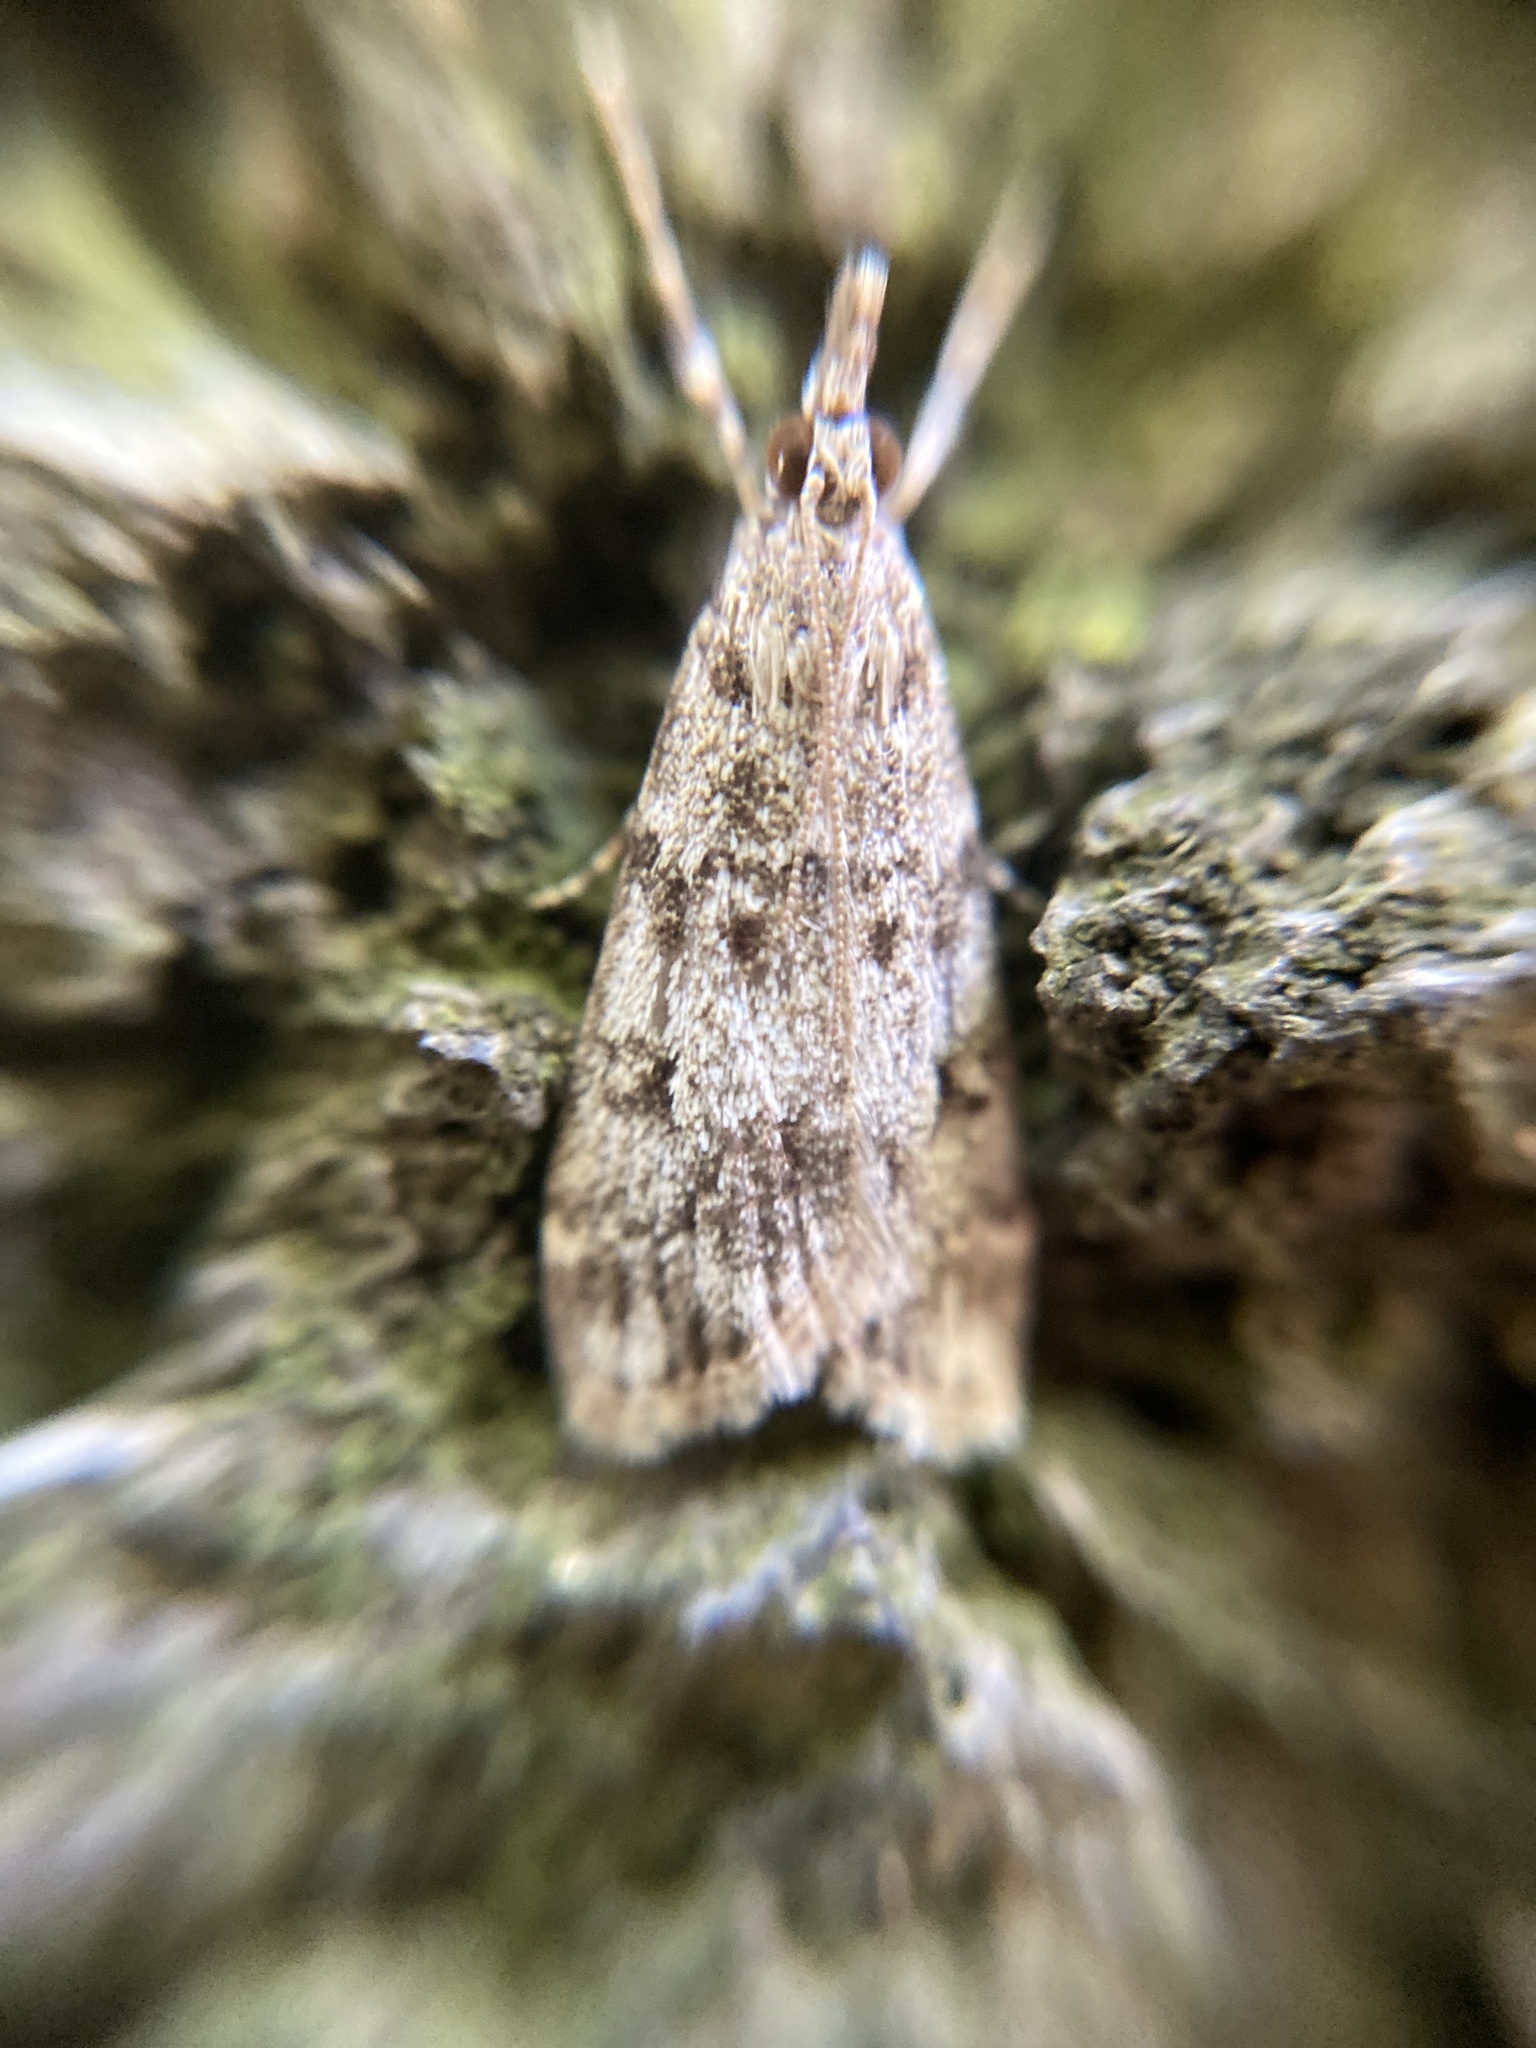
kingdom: Animalia
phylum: Arthropoda
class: Insecta
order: Lepidoptera
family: Crambidae
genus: Eudonia
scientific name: Eudonia lacustrata
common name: Little grey
